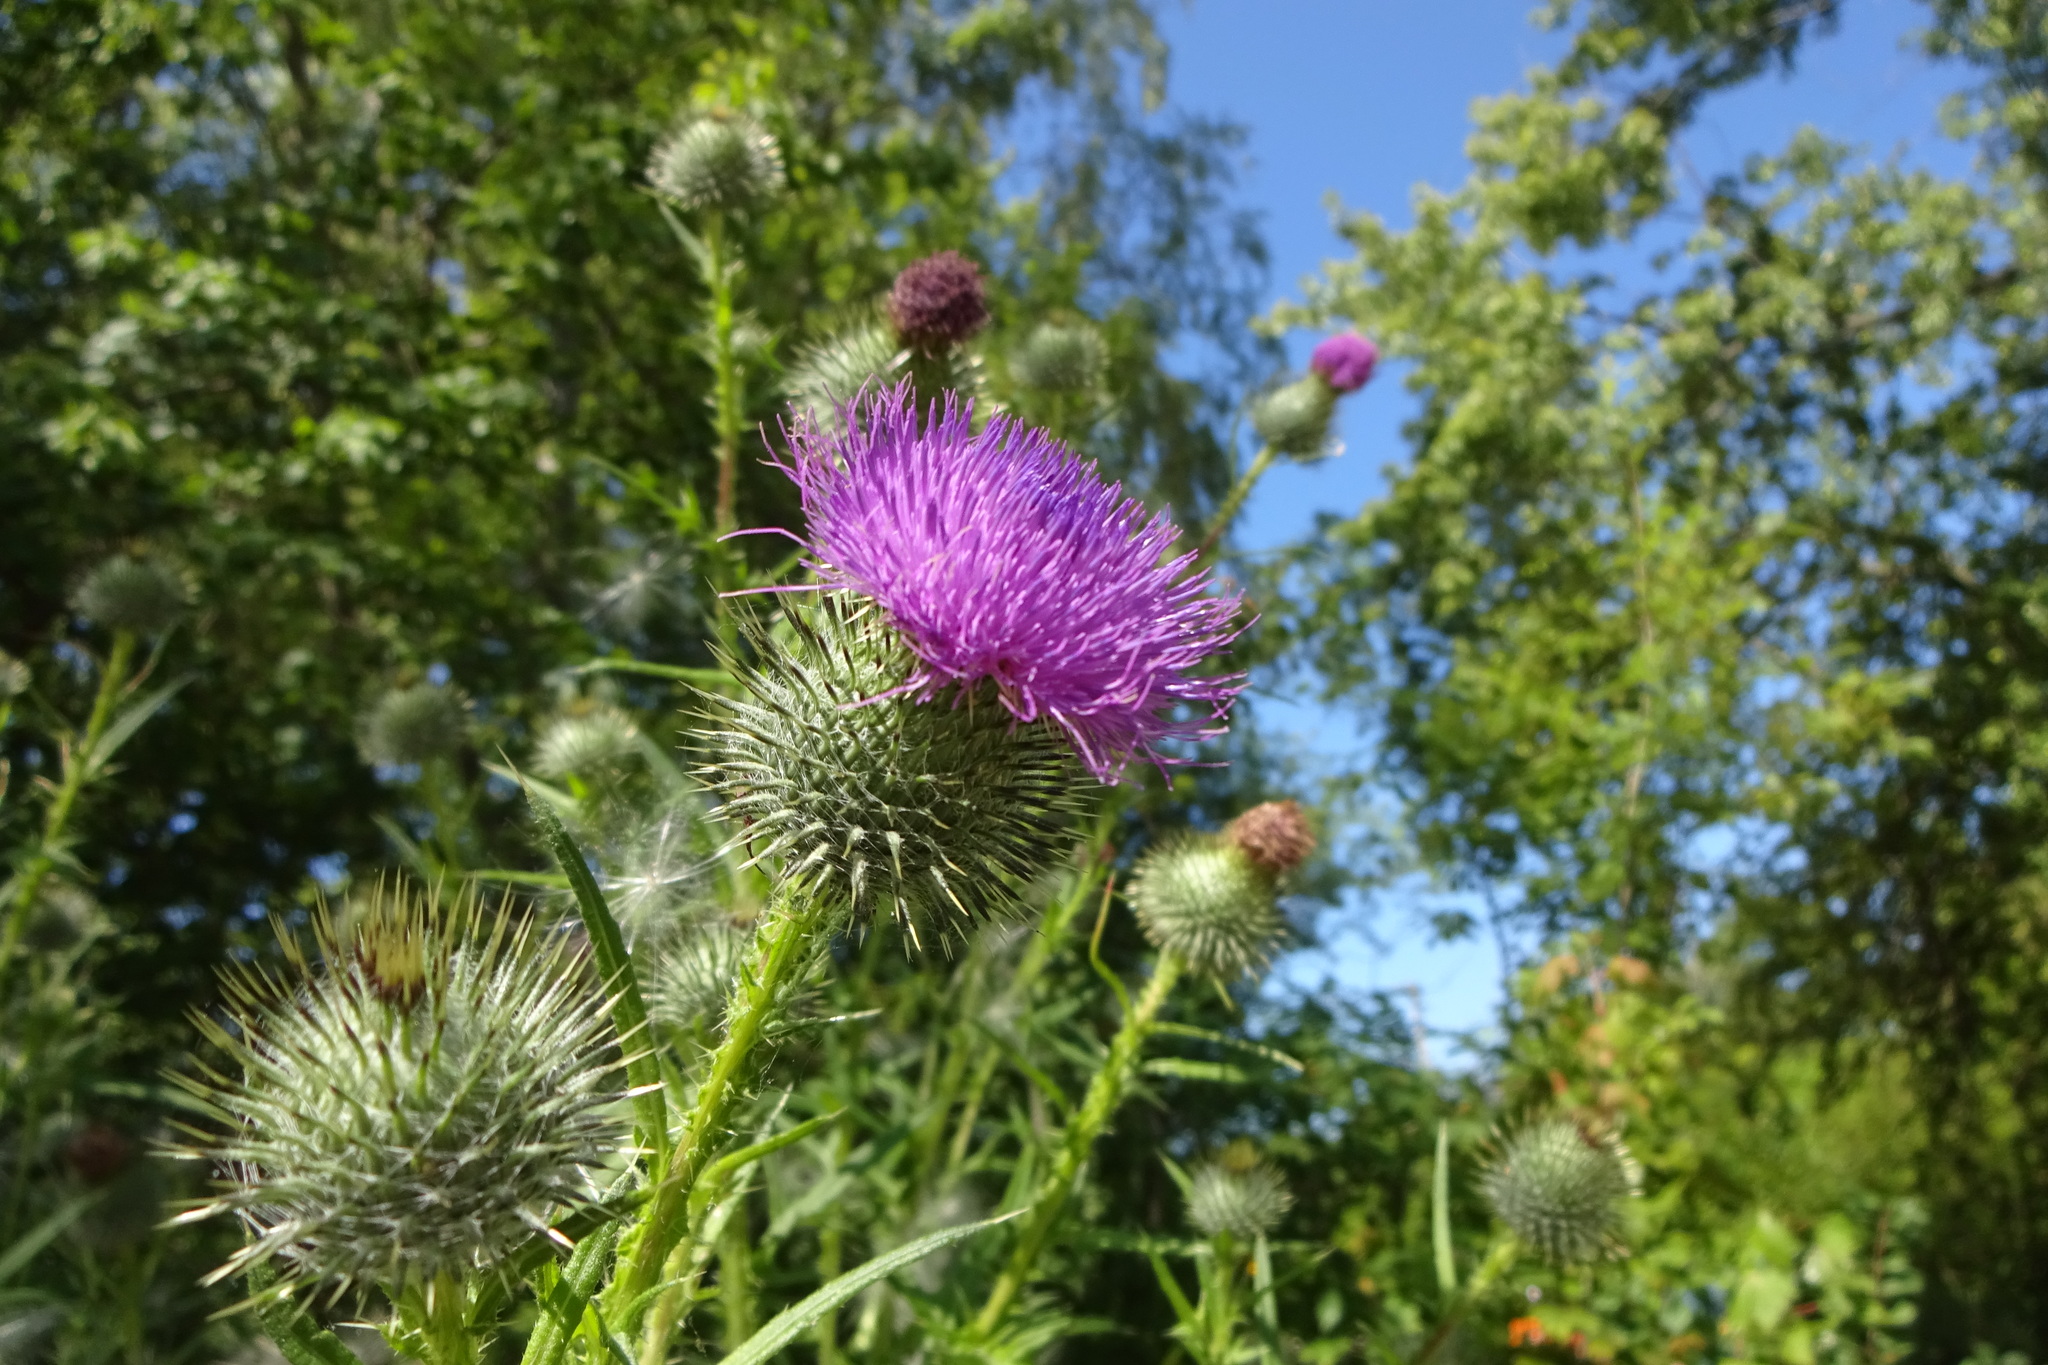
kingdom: Plantae
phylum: Tracheophyta
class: Magnoliopsida
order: Asterales
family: Asteraceae
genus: Cirsium
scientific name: Cirsium vulgare
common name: Bull thistle
